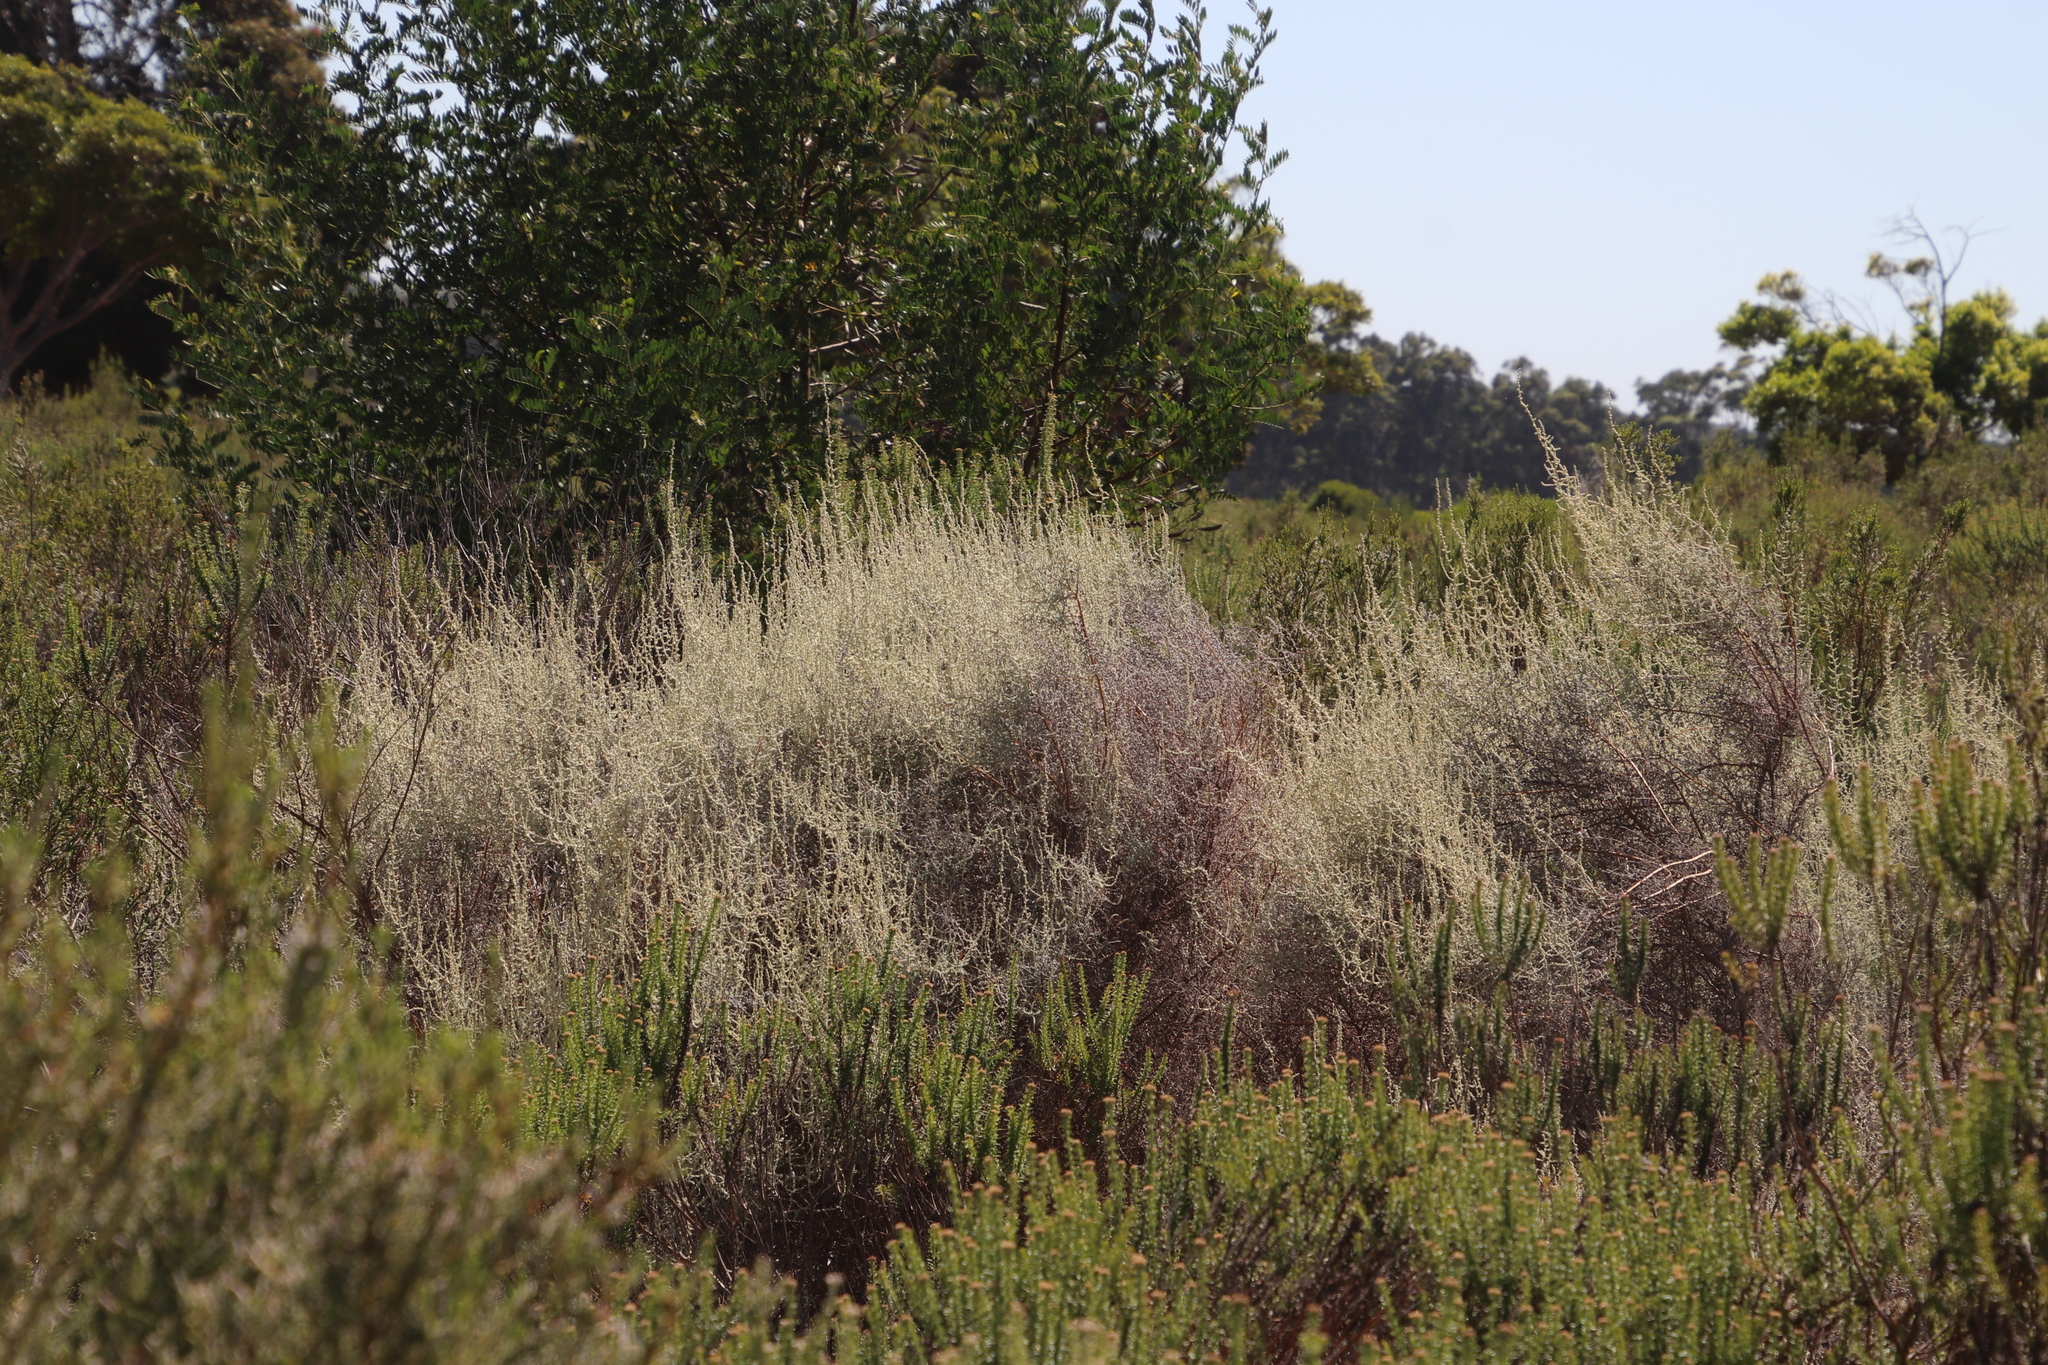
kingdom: Plantae
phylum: Tracheophyta
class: Magnoliopsida
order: Asterales
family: Asteraceae
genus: Seriphium
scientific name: Seriphium plumosum
